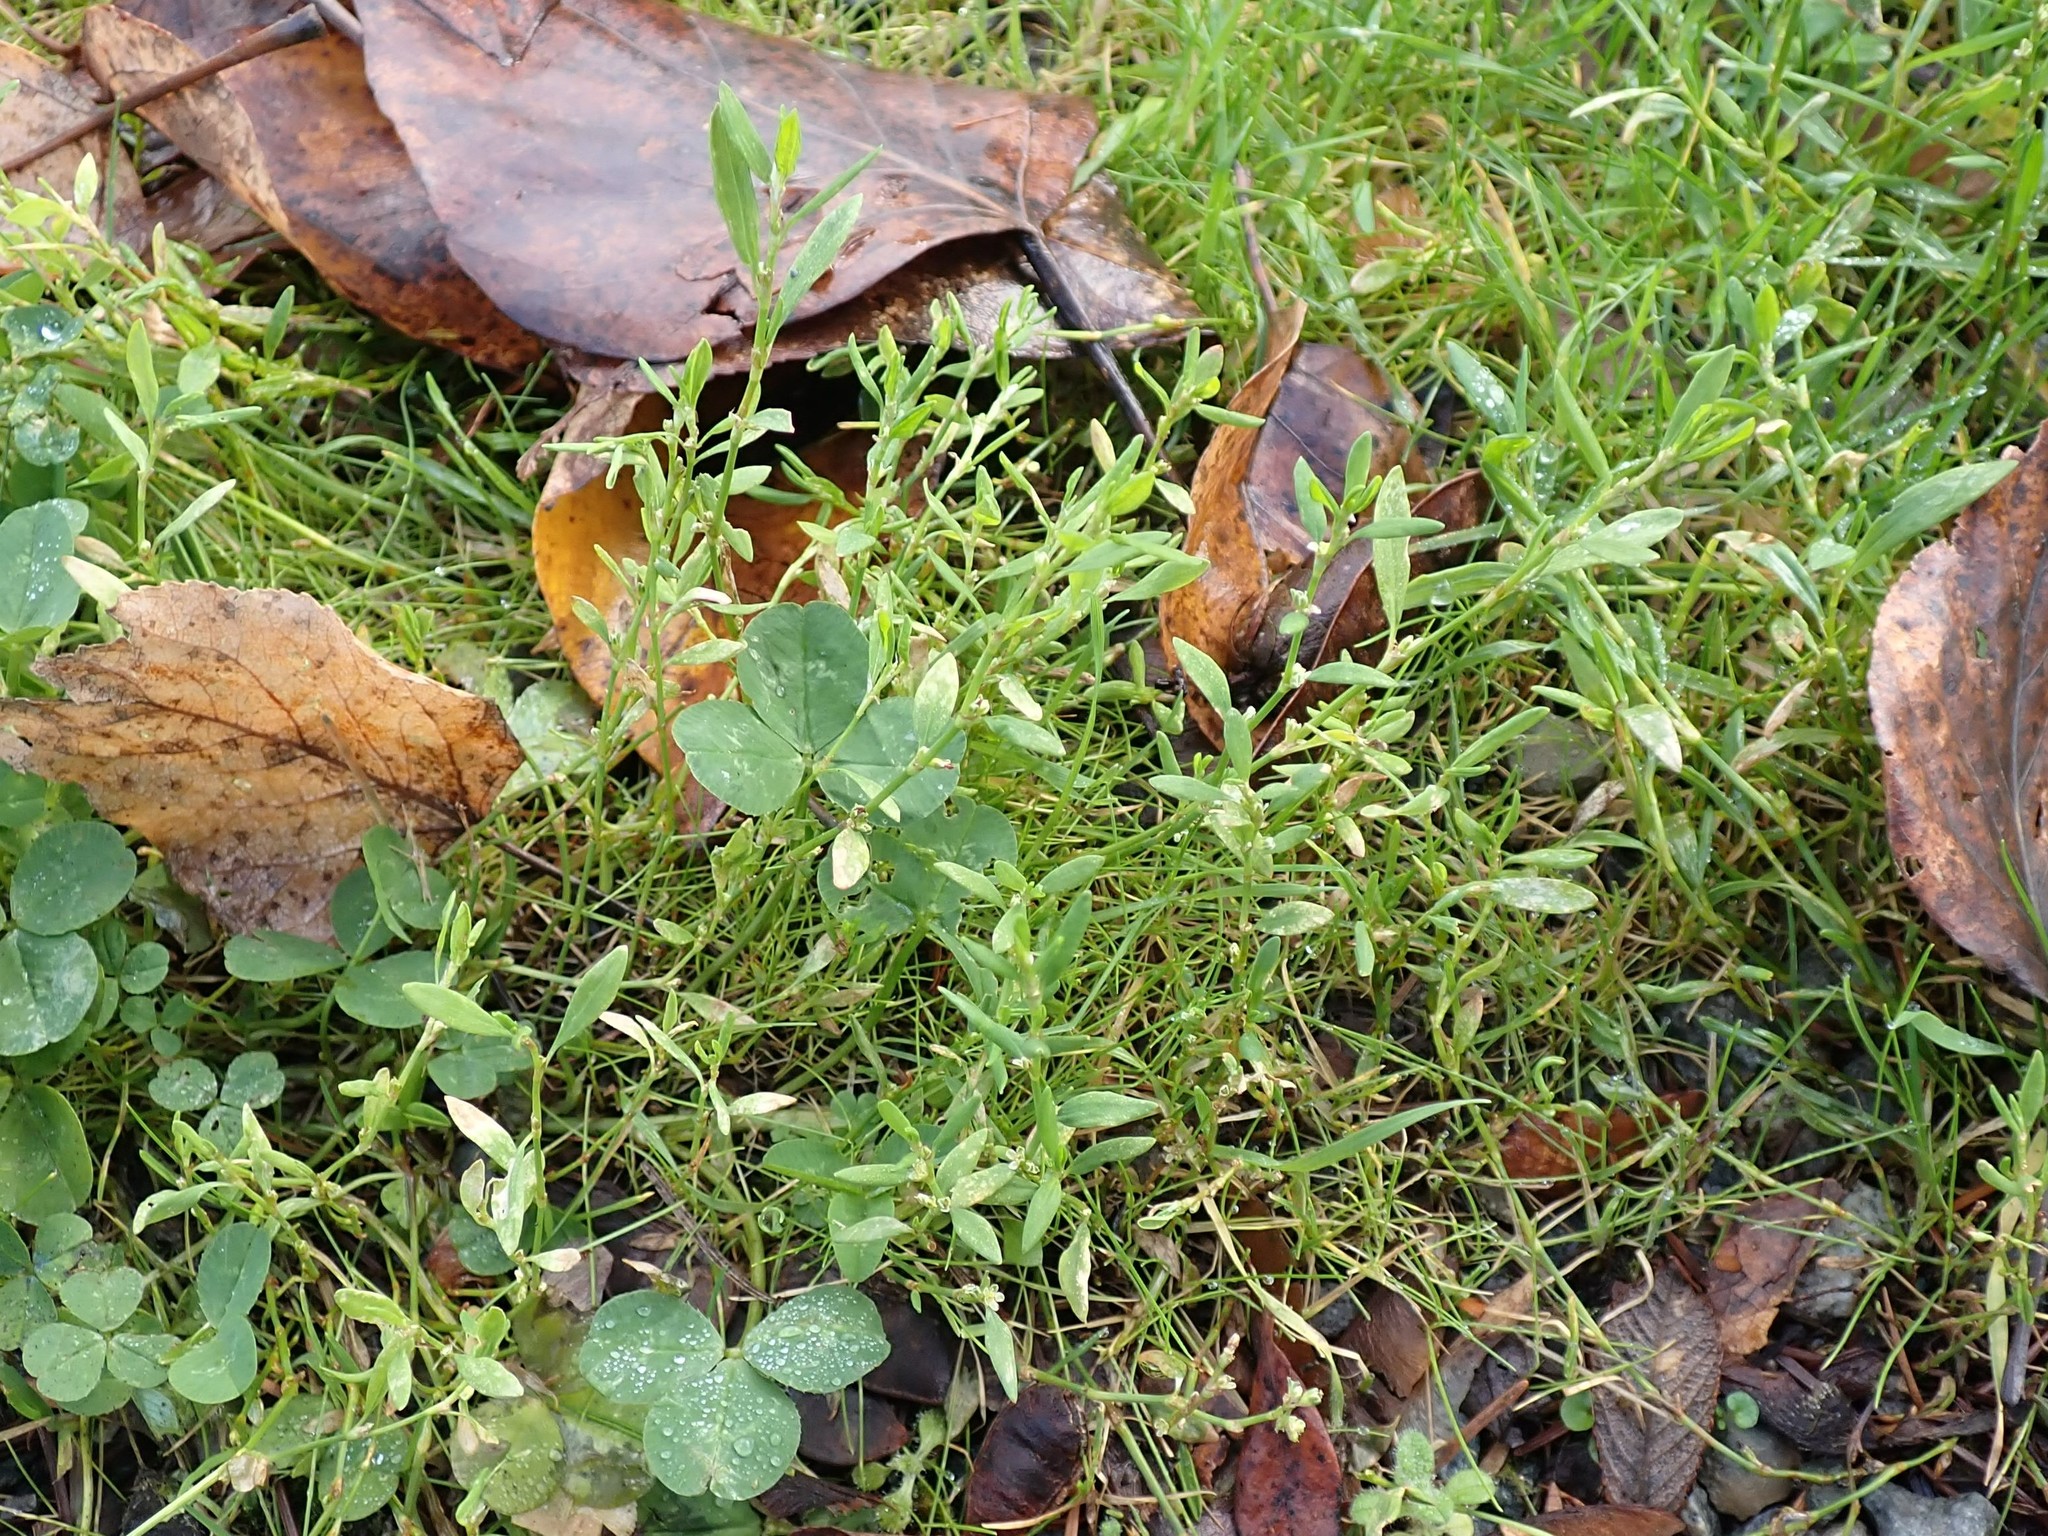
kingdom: Plantae
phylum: Tracheophyta
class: Magnoliopsida
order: Caryophyllales
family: Polygonaceae
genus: Polygonum
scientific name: Polygonum aviculare
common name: Prostrate knotweed
